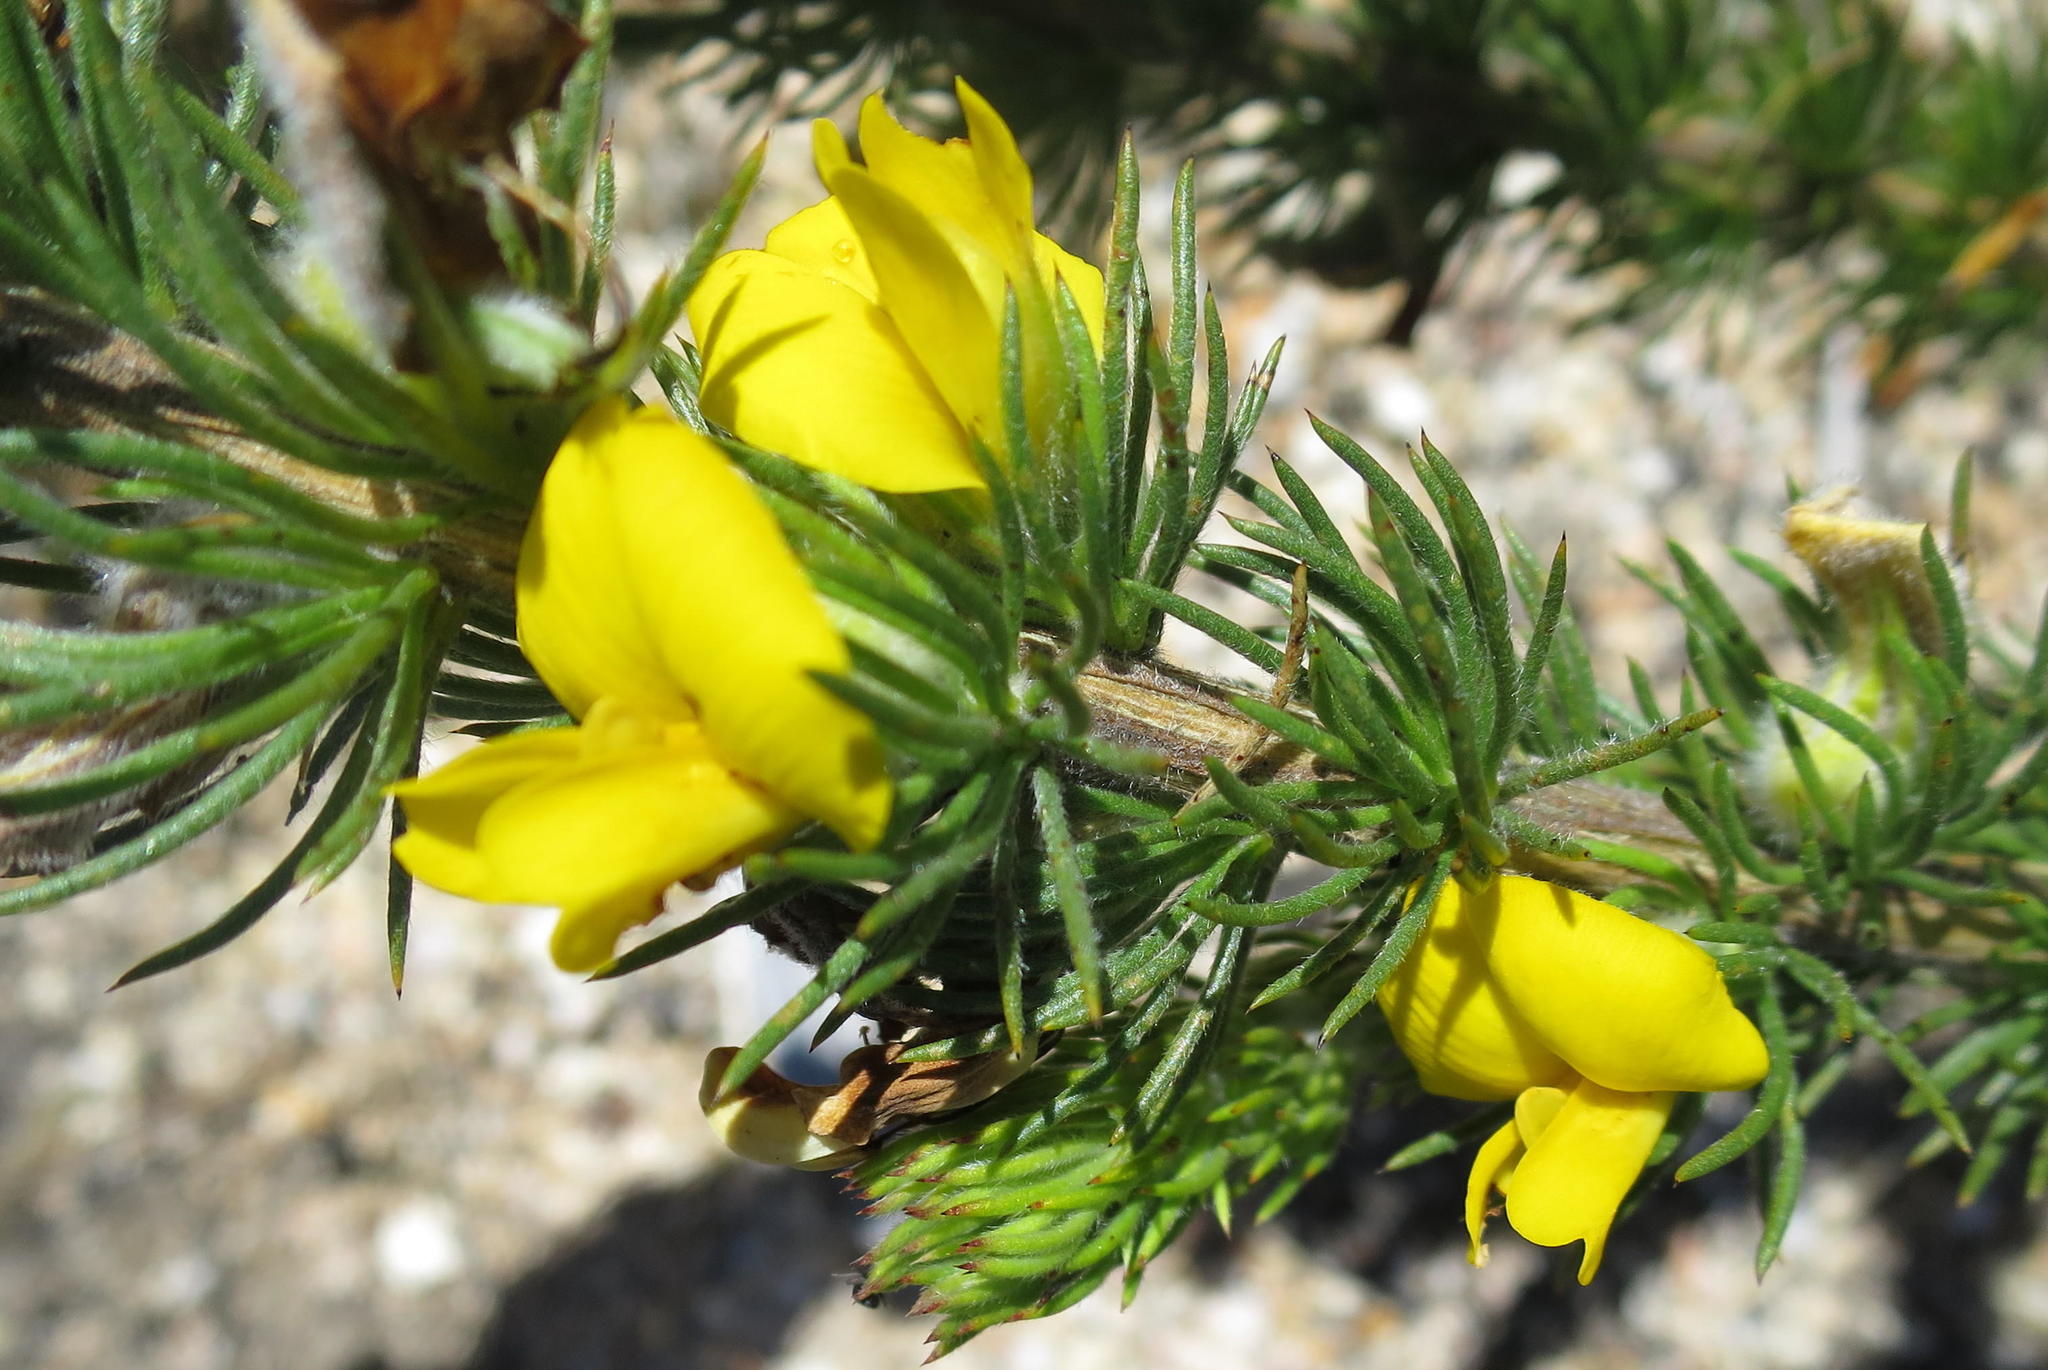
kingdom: Plantae
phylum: Tracheophyta
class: Magnoliopsida
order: Fabales
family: Fabaceae
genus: Aspalathus
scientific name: Aspalathus acanthes
